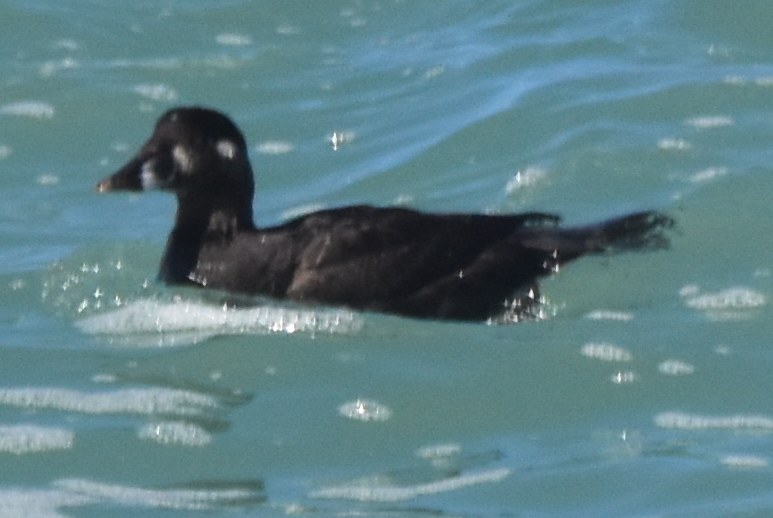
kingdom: Animalia
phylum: Chordata
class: Aves
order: Anseriformes
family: Anatidae
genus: Melanitta
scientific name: Melanitta perspicillata
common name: Surf scoter
